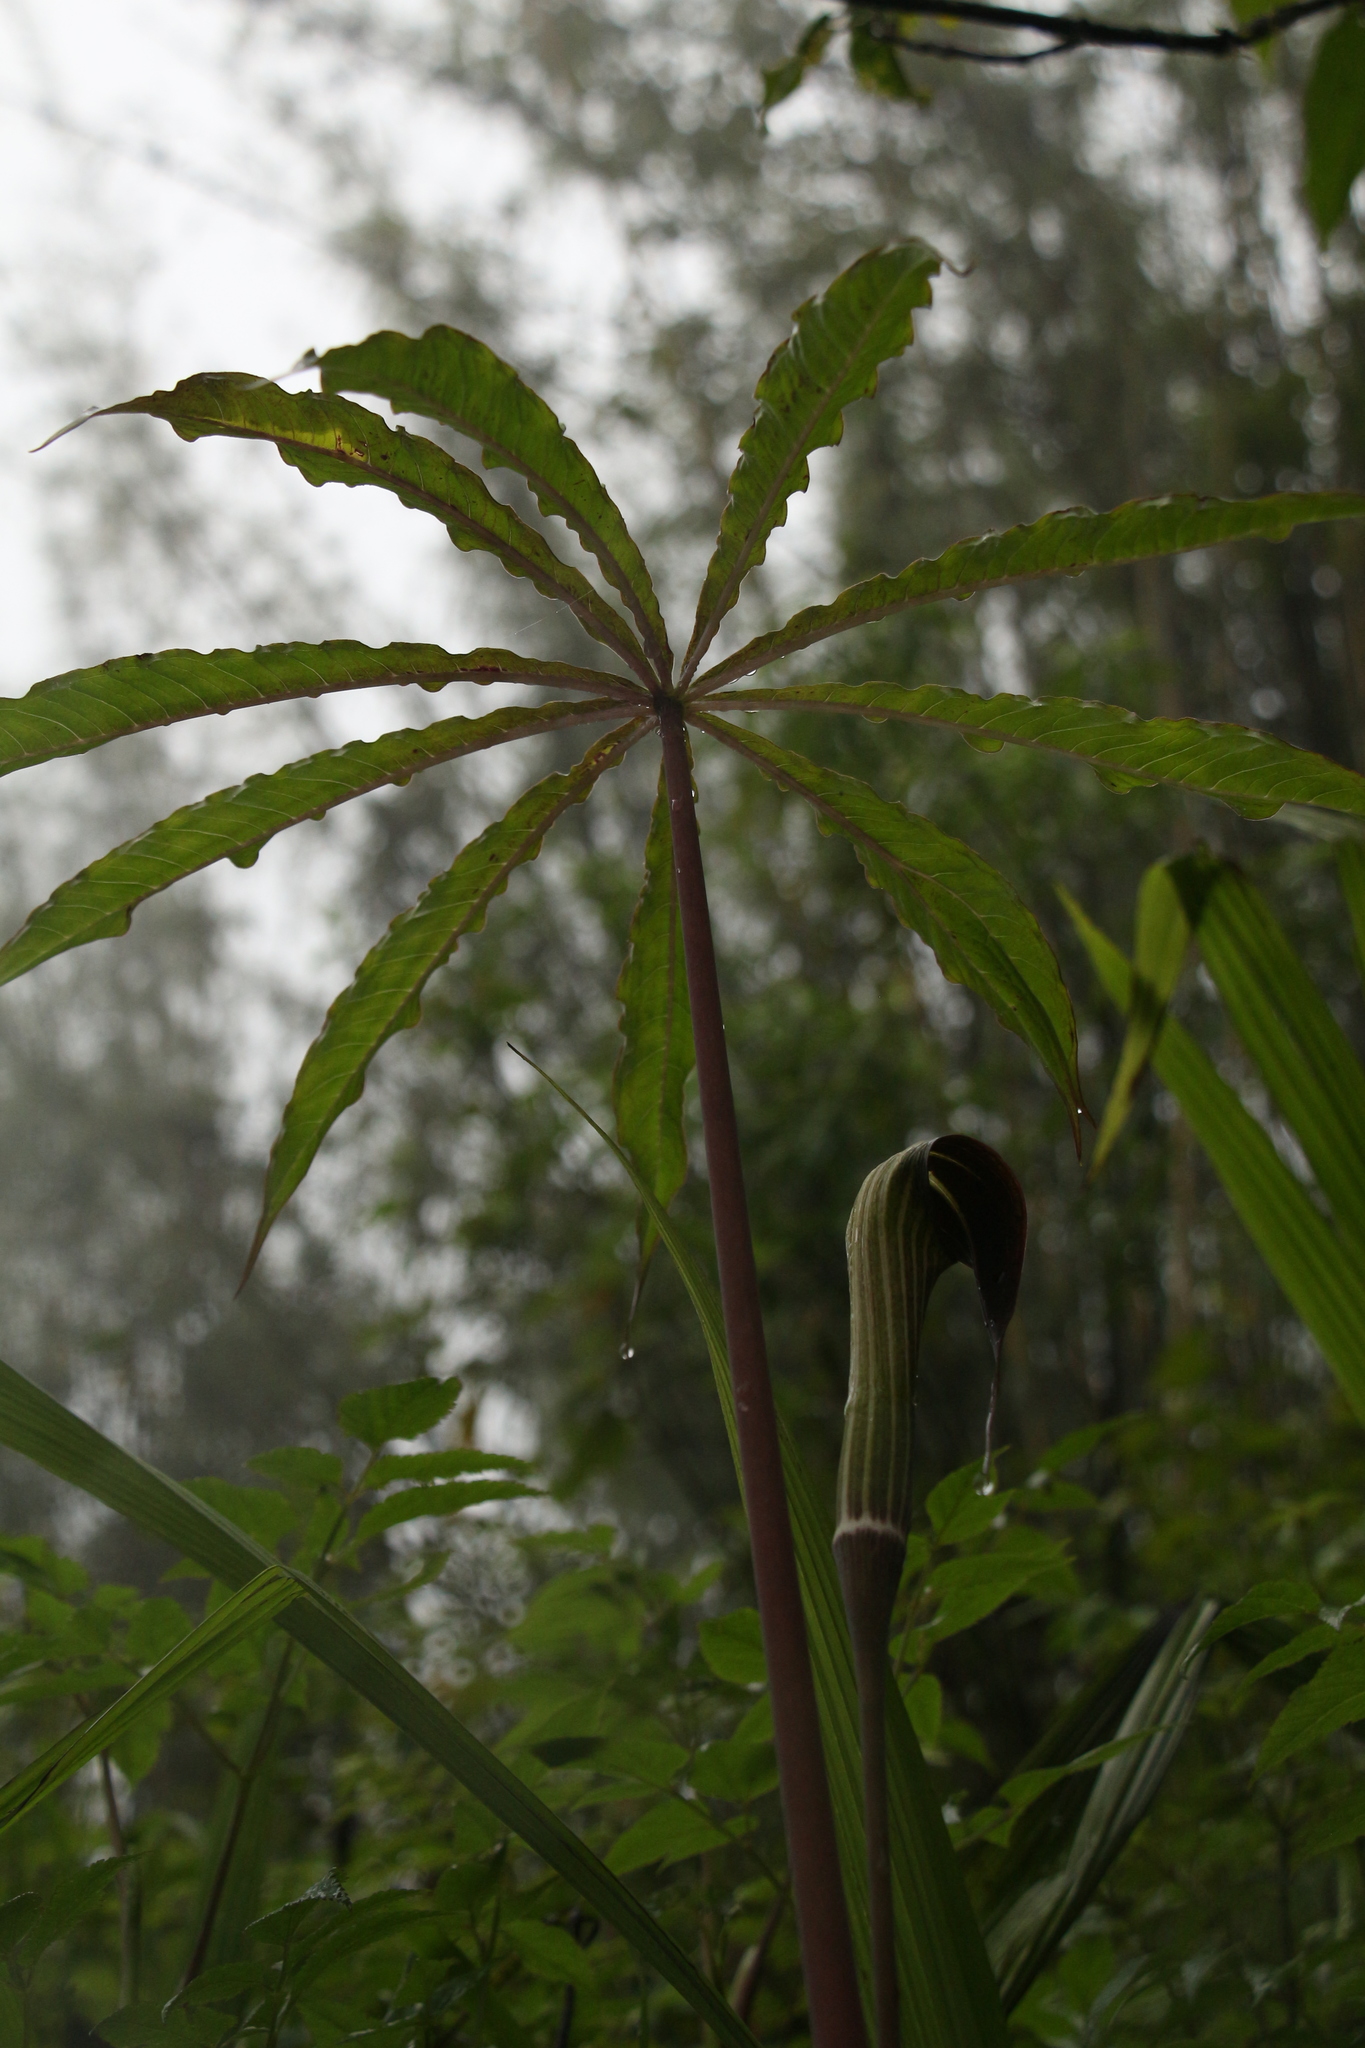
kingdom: Plantae
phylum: Tracheophyta
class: Liliopsida
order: Alismatales
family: Araceae
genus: Arisaema
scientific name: Arisaema consanguineum
